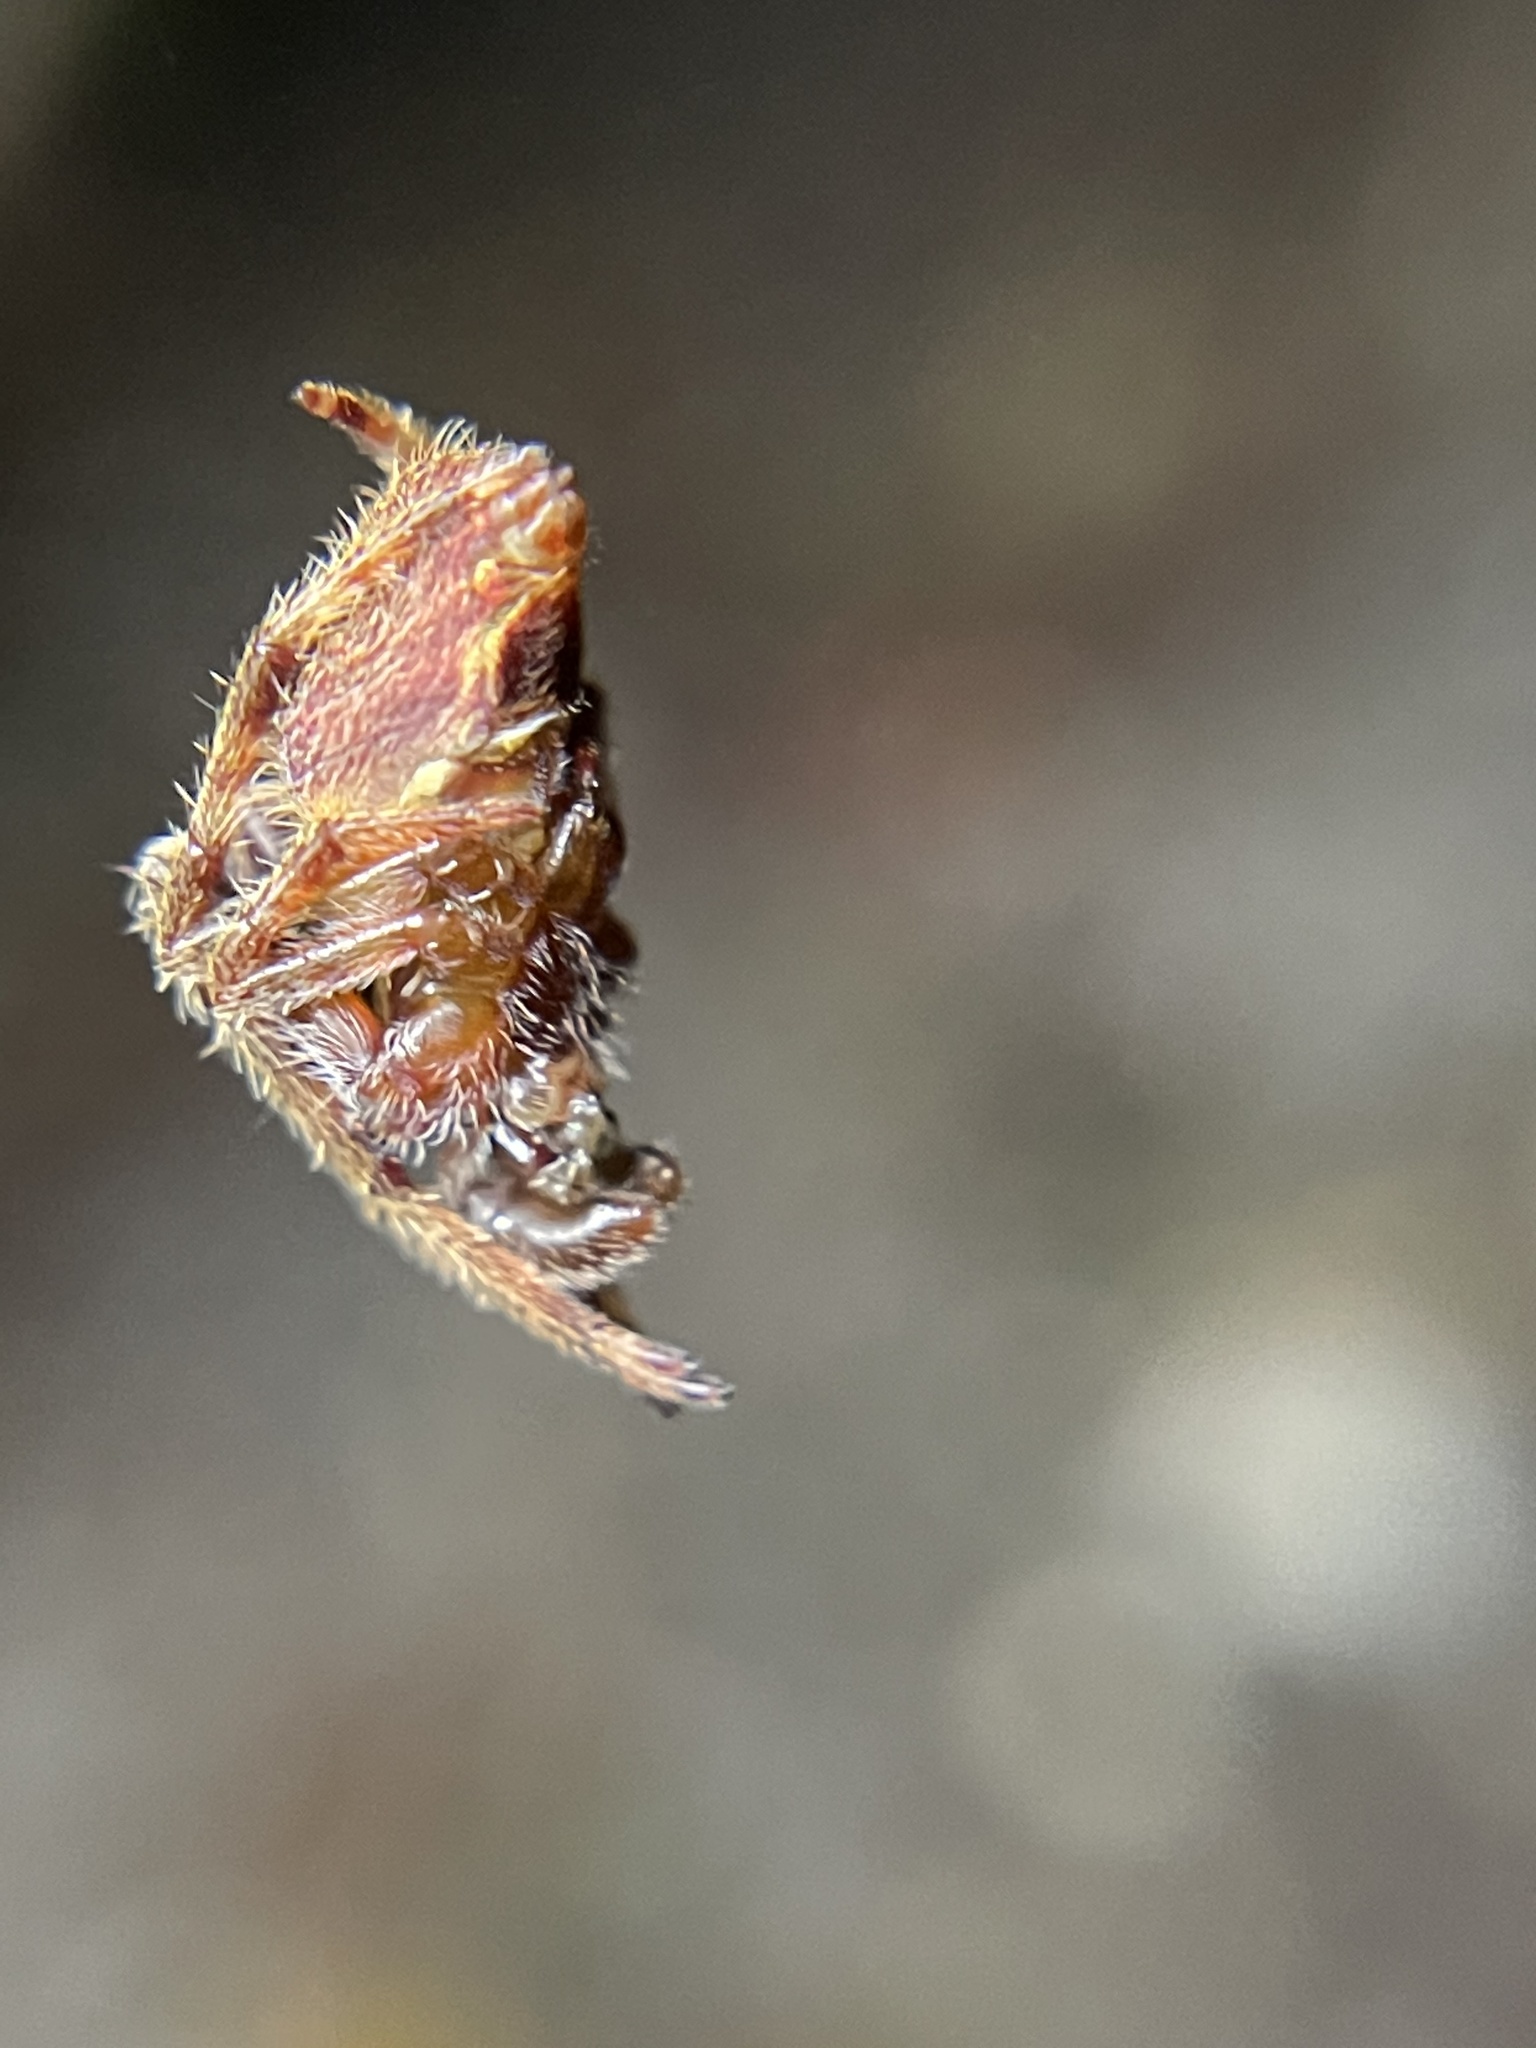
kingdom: Animalia
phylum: Arthropoda
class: Arachnida
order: Araneae
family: Araneidae
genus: Eriophora
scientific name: Eriophora ravilla
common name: Orb weavers
